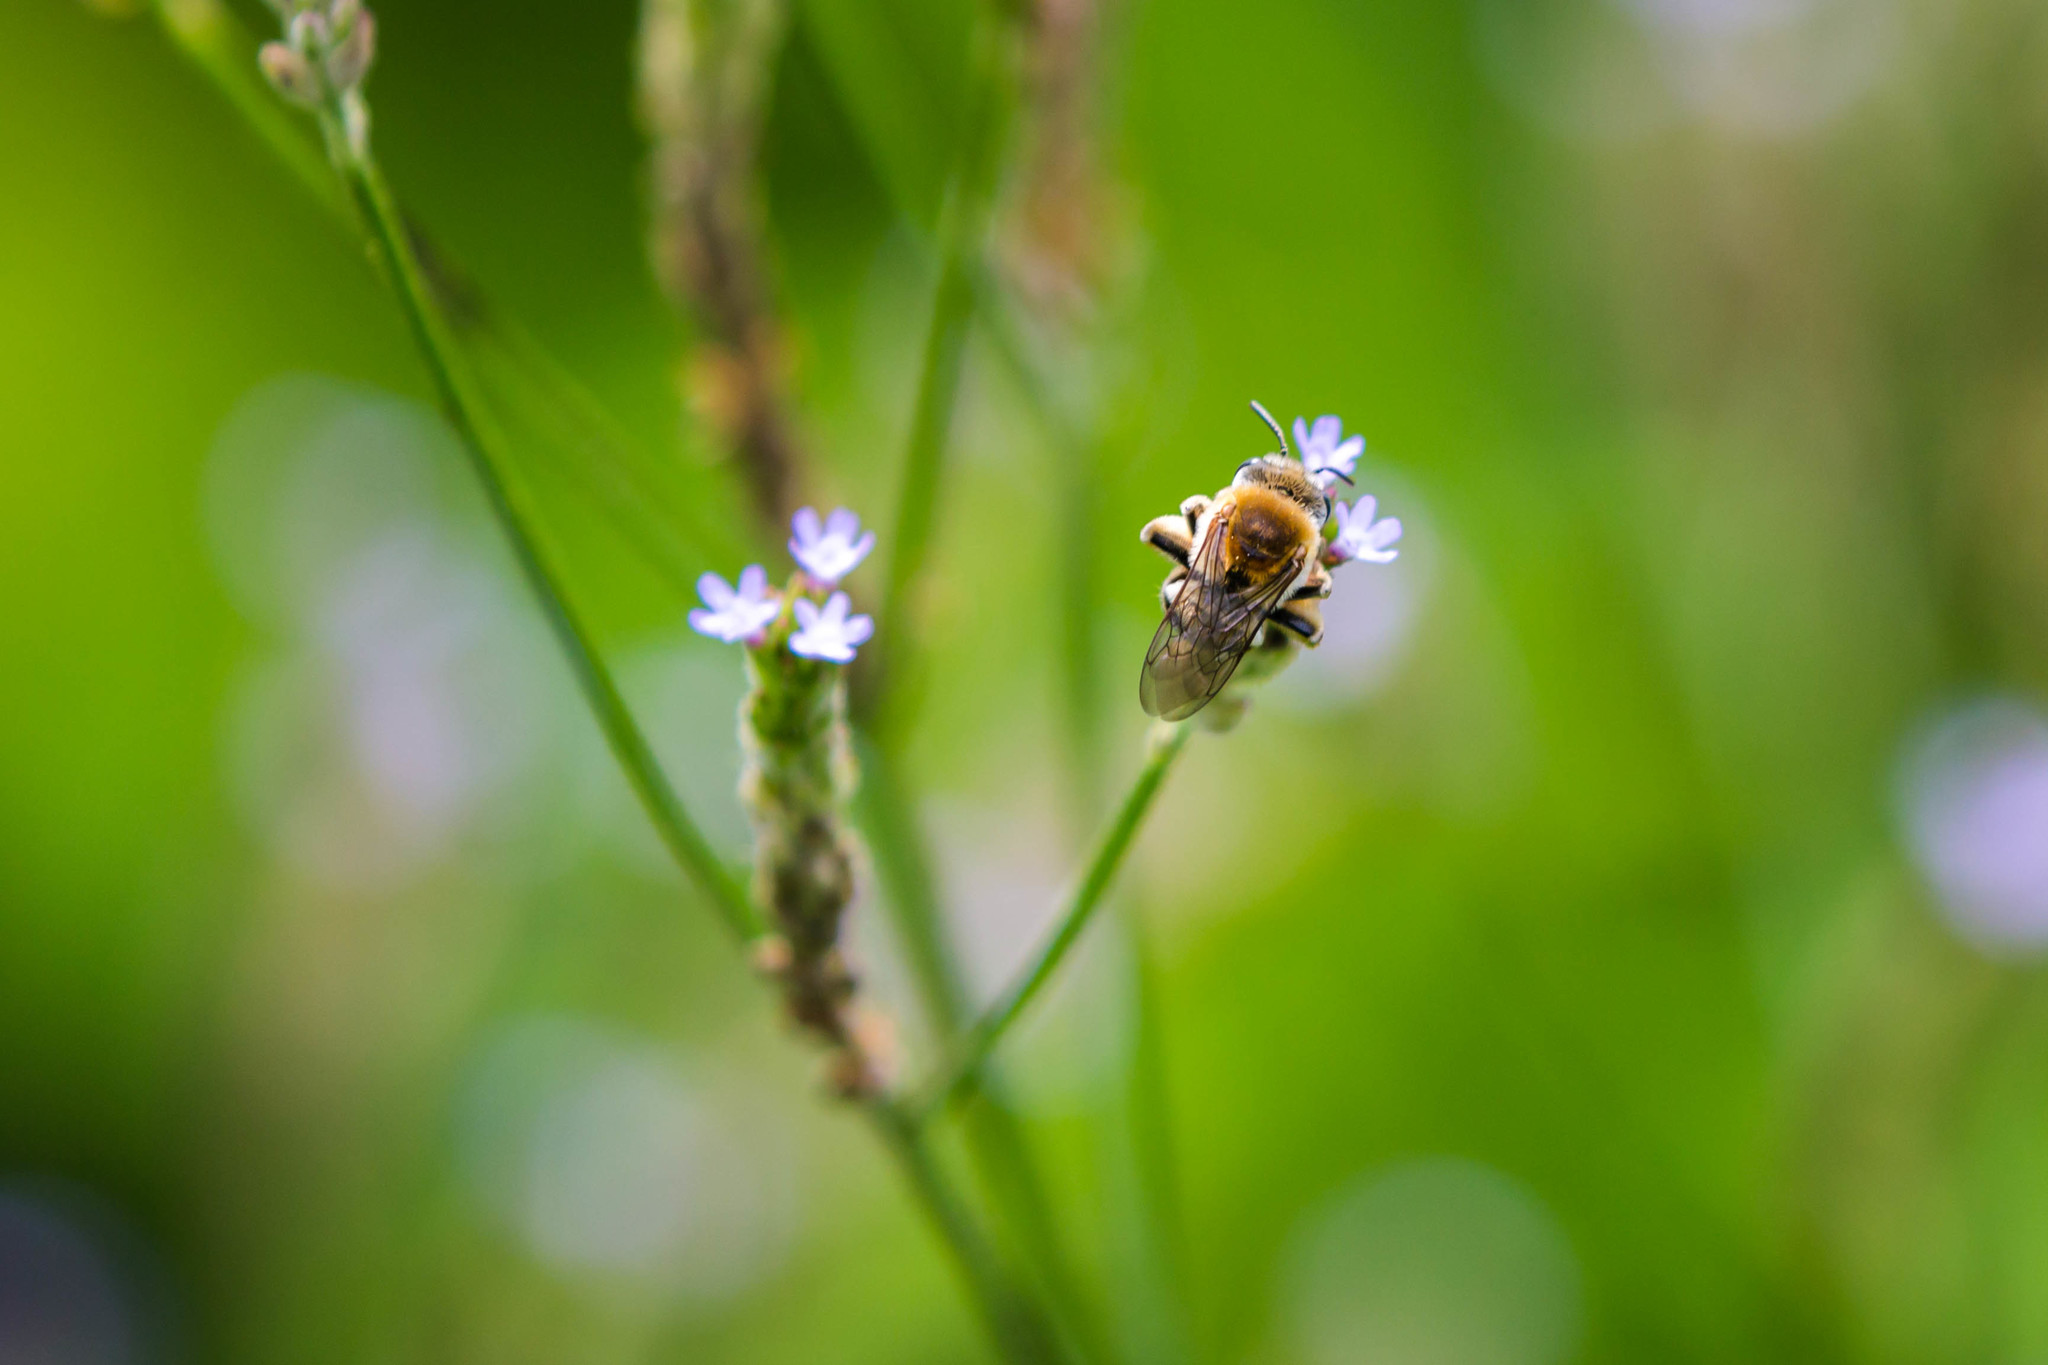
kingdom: Animalia
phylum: Arthropoda
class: Insecta
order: Hymenoptera
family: Apidae
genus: Melissodes
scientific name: Melissodes tepaneca
